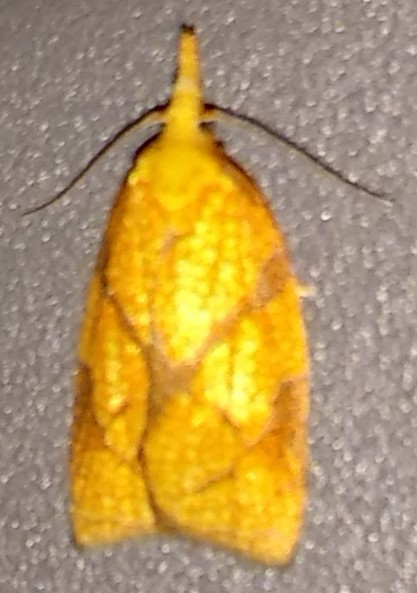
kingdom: Animalia
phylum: Arthropoda
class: Insecta
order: Lepidoptera
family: Tortricidae
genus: Cenopis
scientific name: Cenopis reticulatana
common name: Reticulated fruitworm moth
